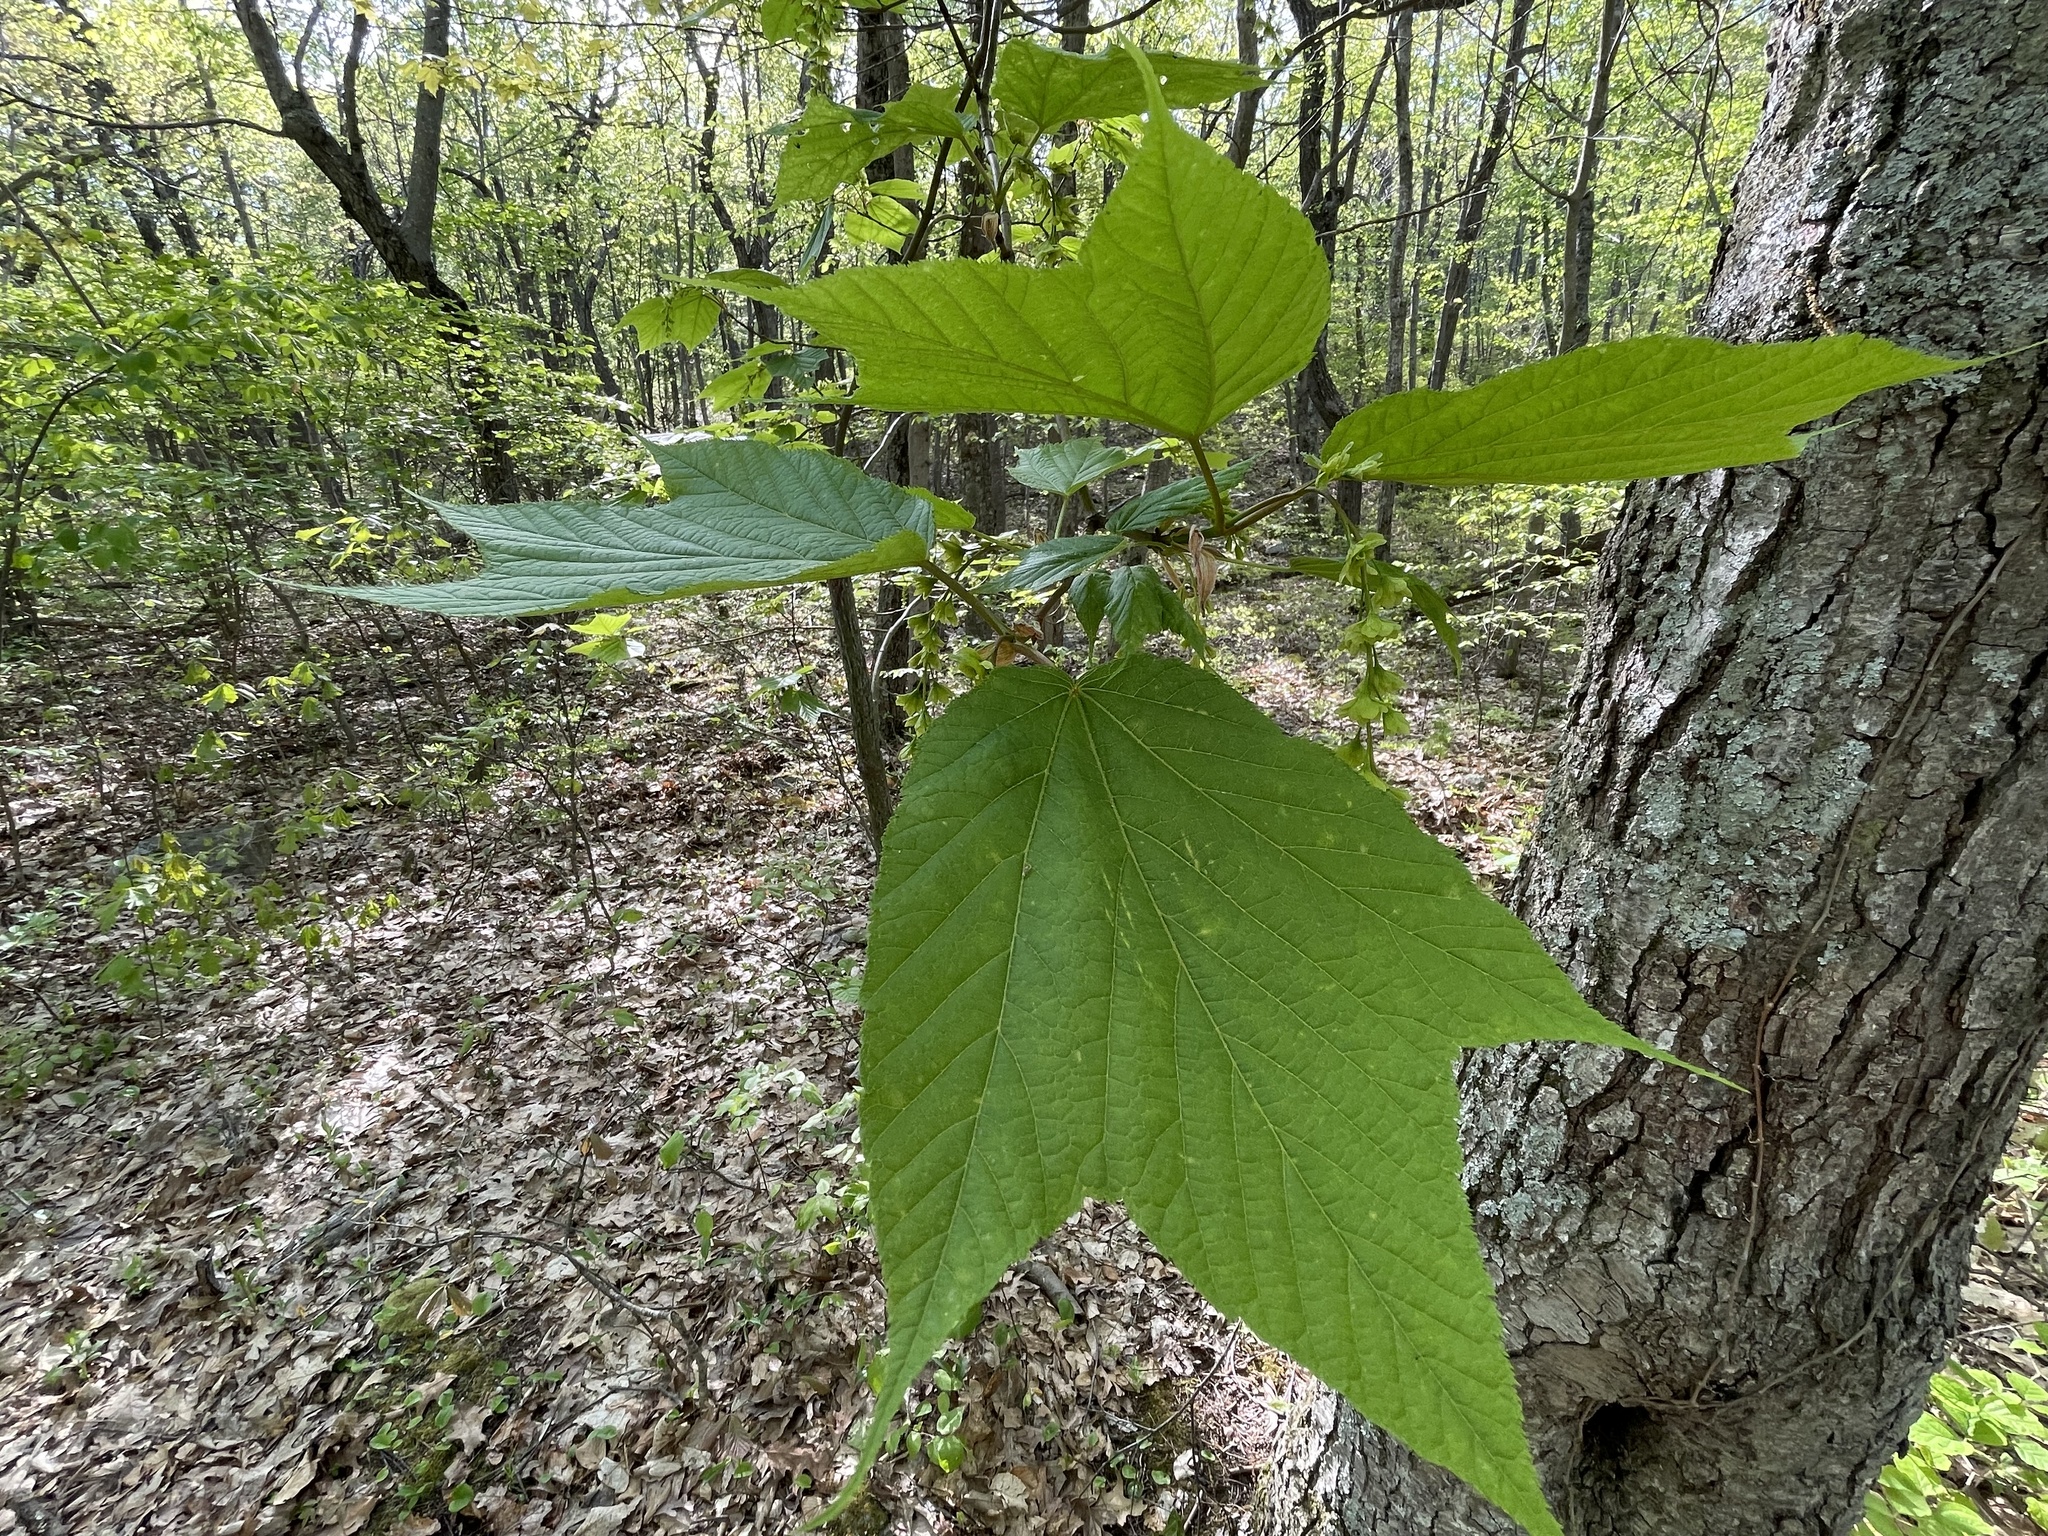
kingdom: Plantae
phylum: Tracheophyta
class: Magnoliopsida
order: Sapindales
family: Sapindaceae
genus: Acer
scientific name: Acer pensylvanicum
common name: Moosewood
